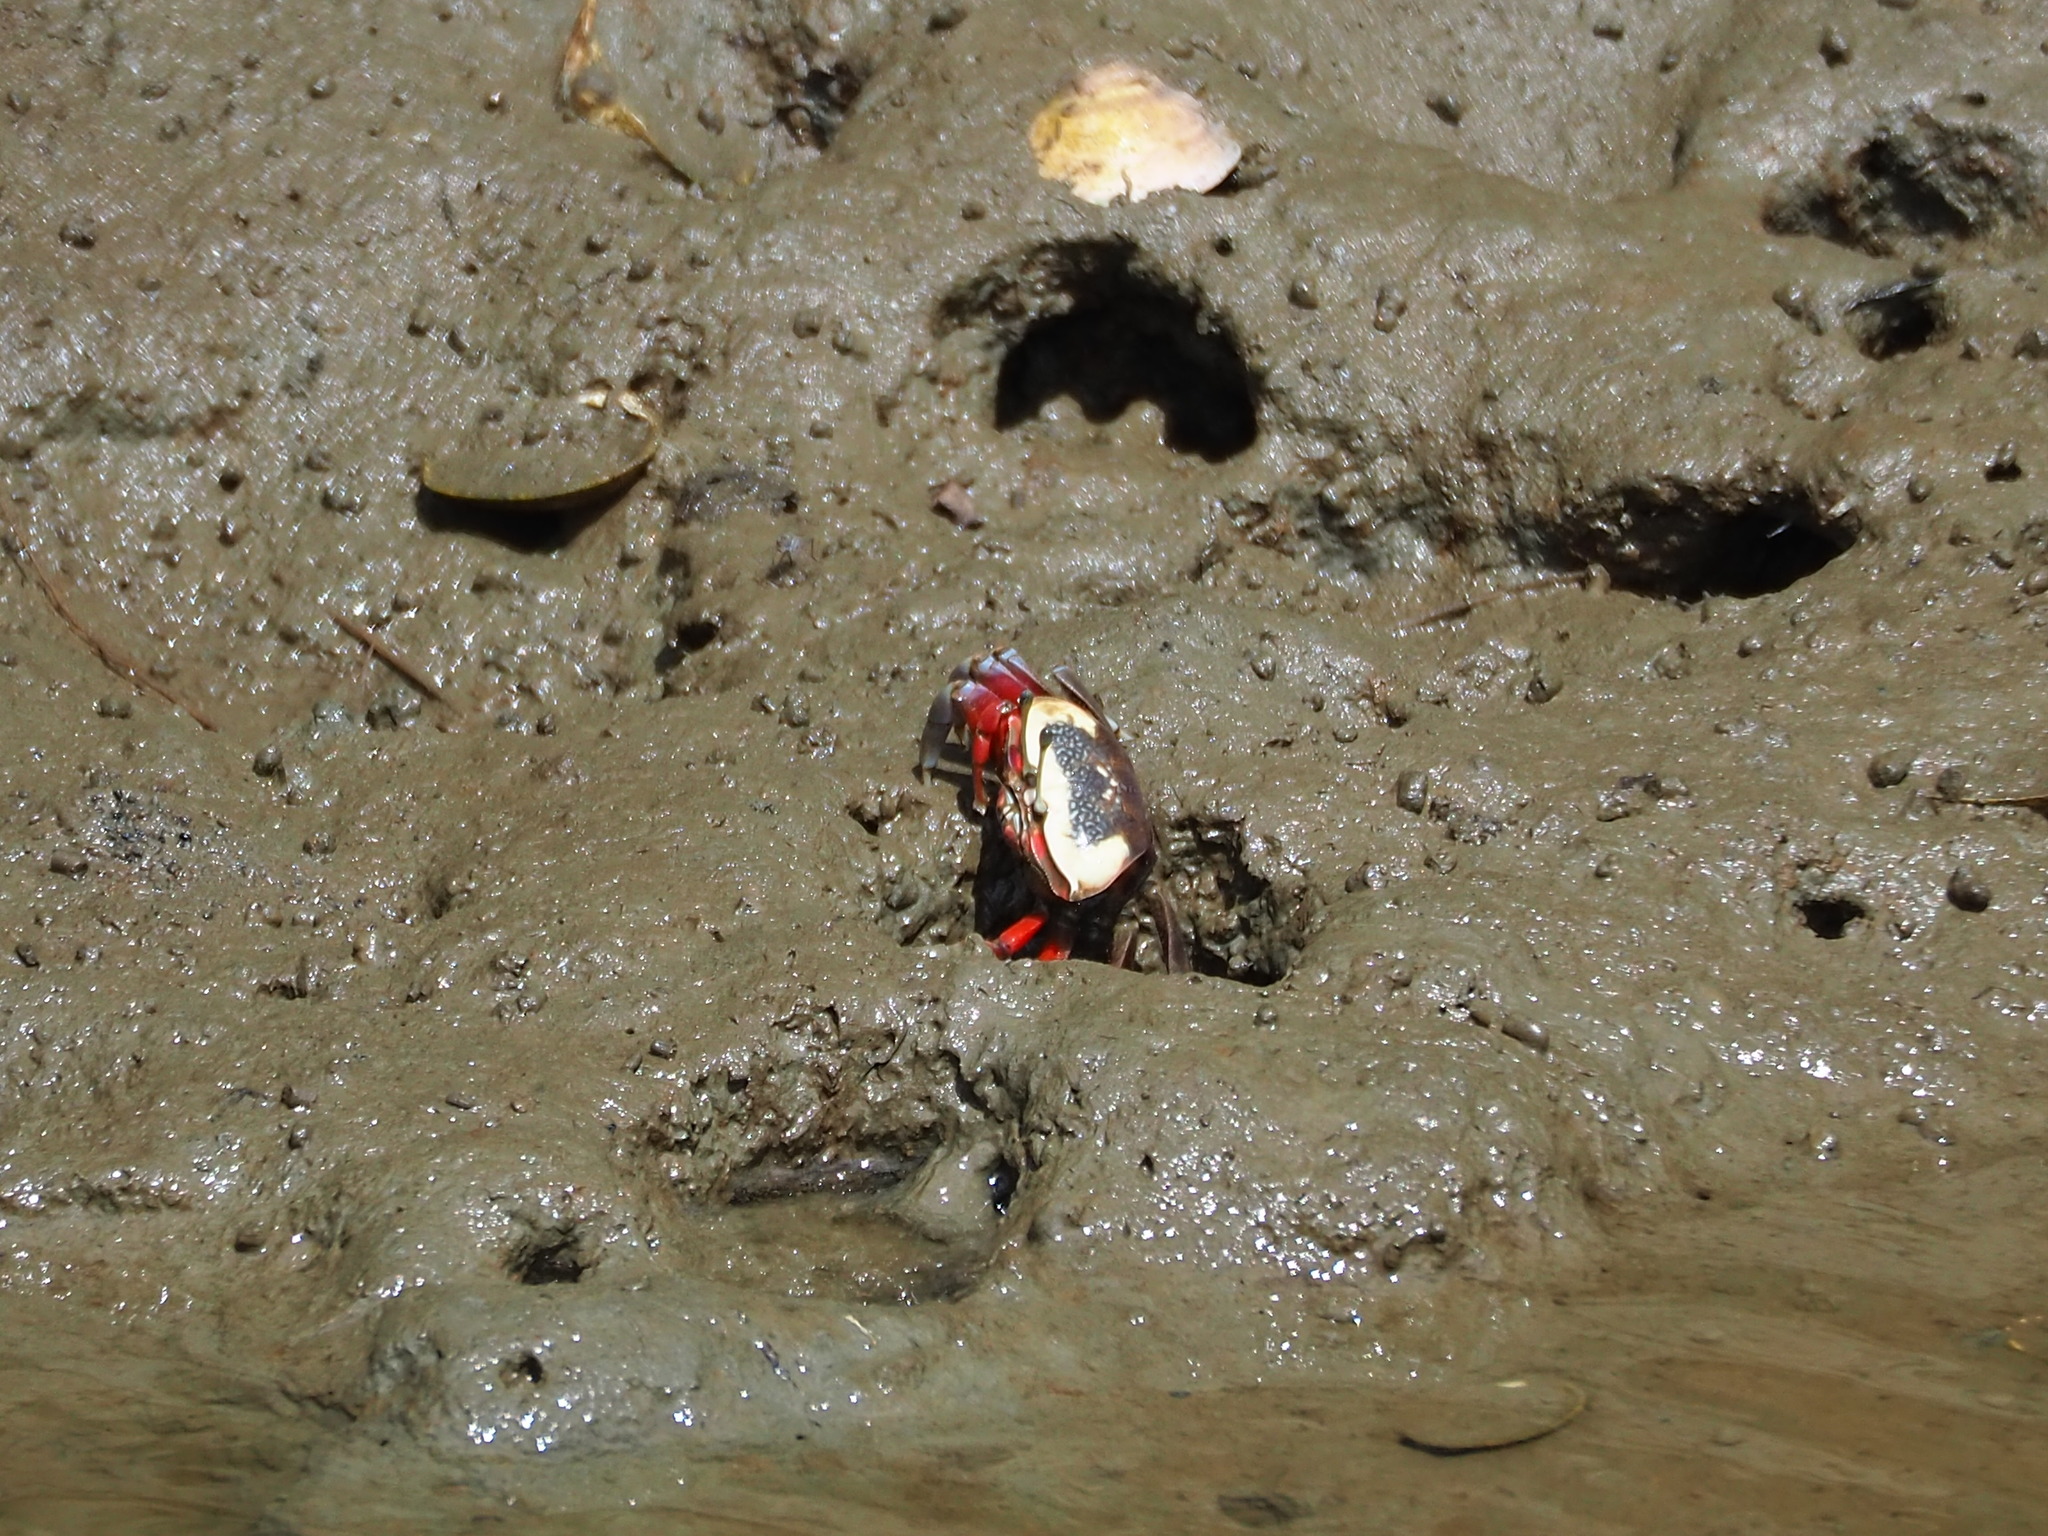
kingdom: Animalia
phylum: Arthropoda
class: Malacostraca
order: Decapoda
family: Ocypodidae
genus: Tubuca
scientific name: Tubuca arcuata
